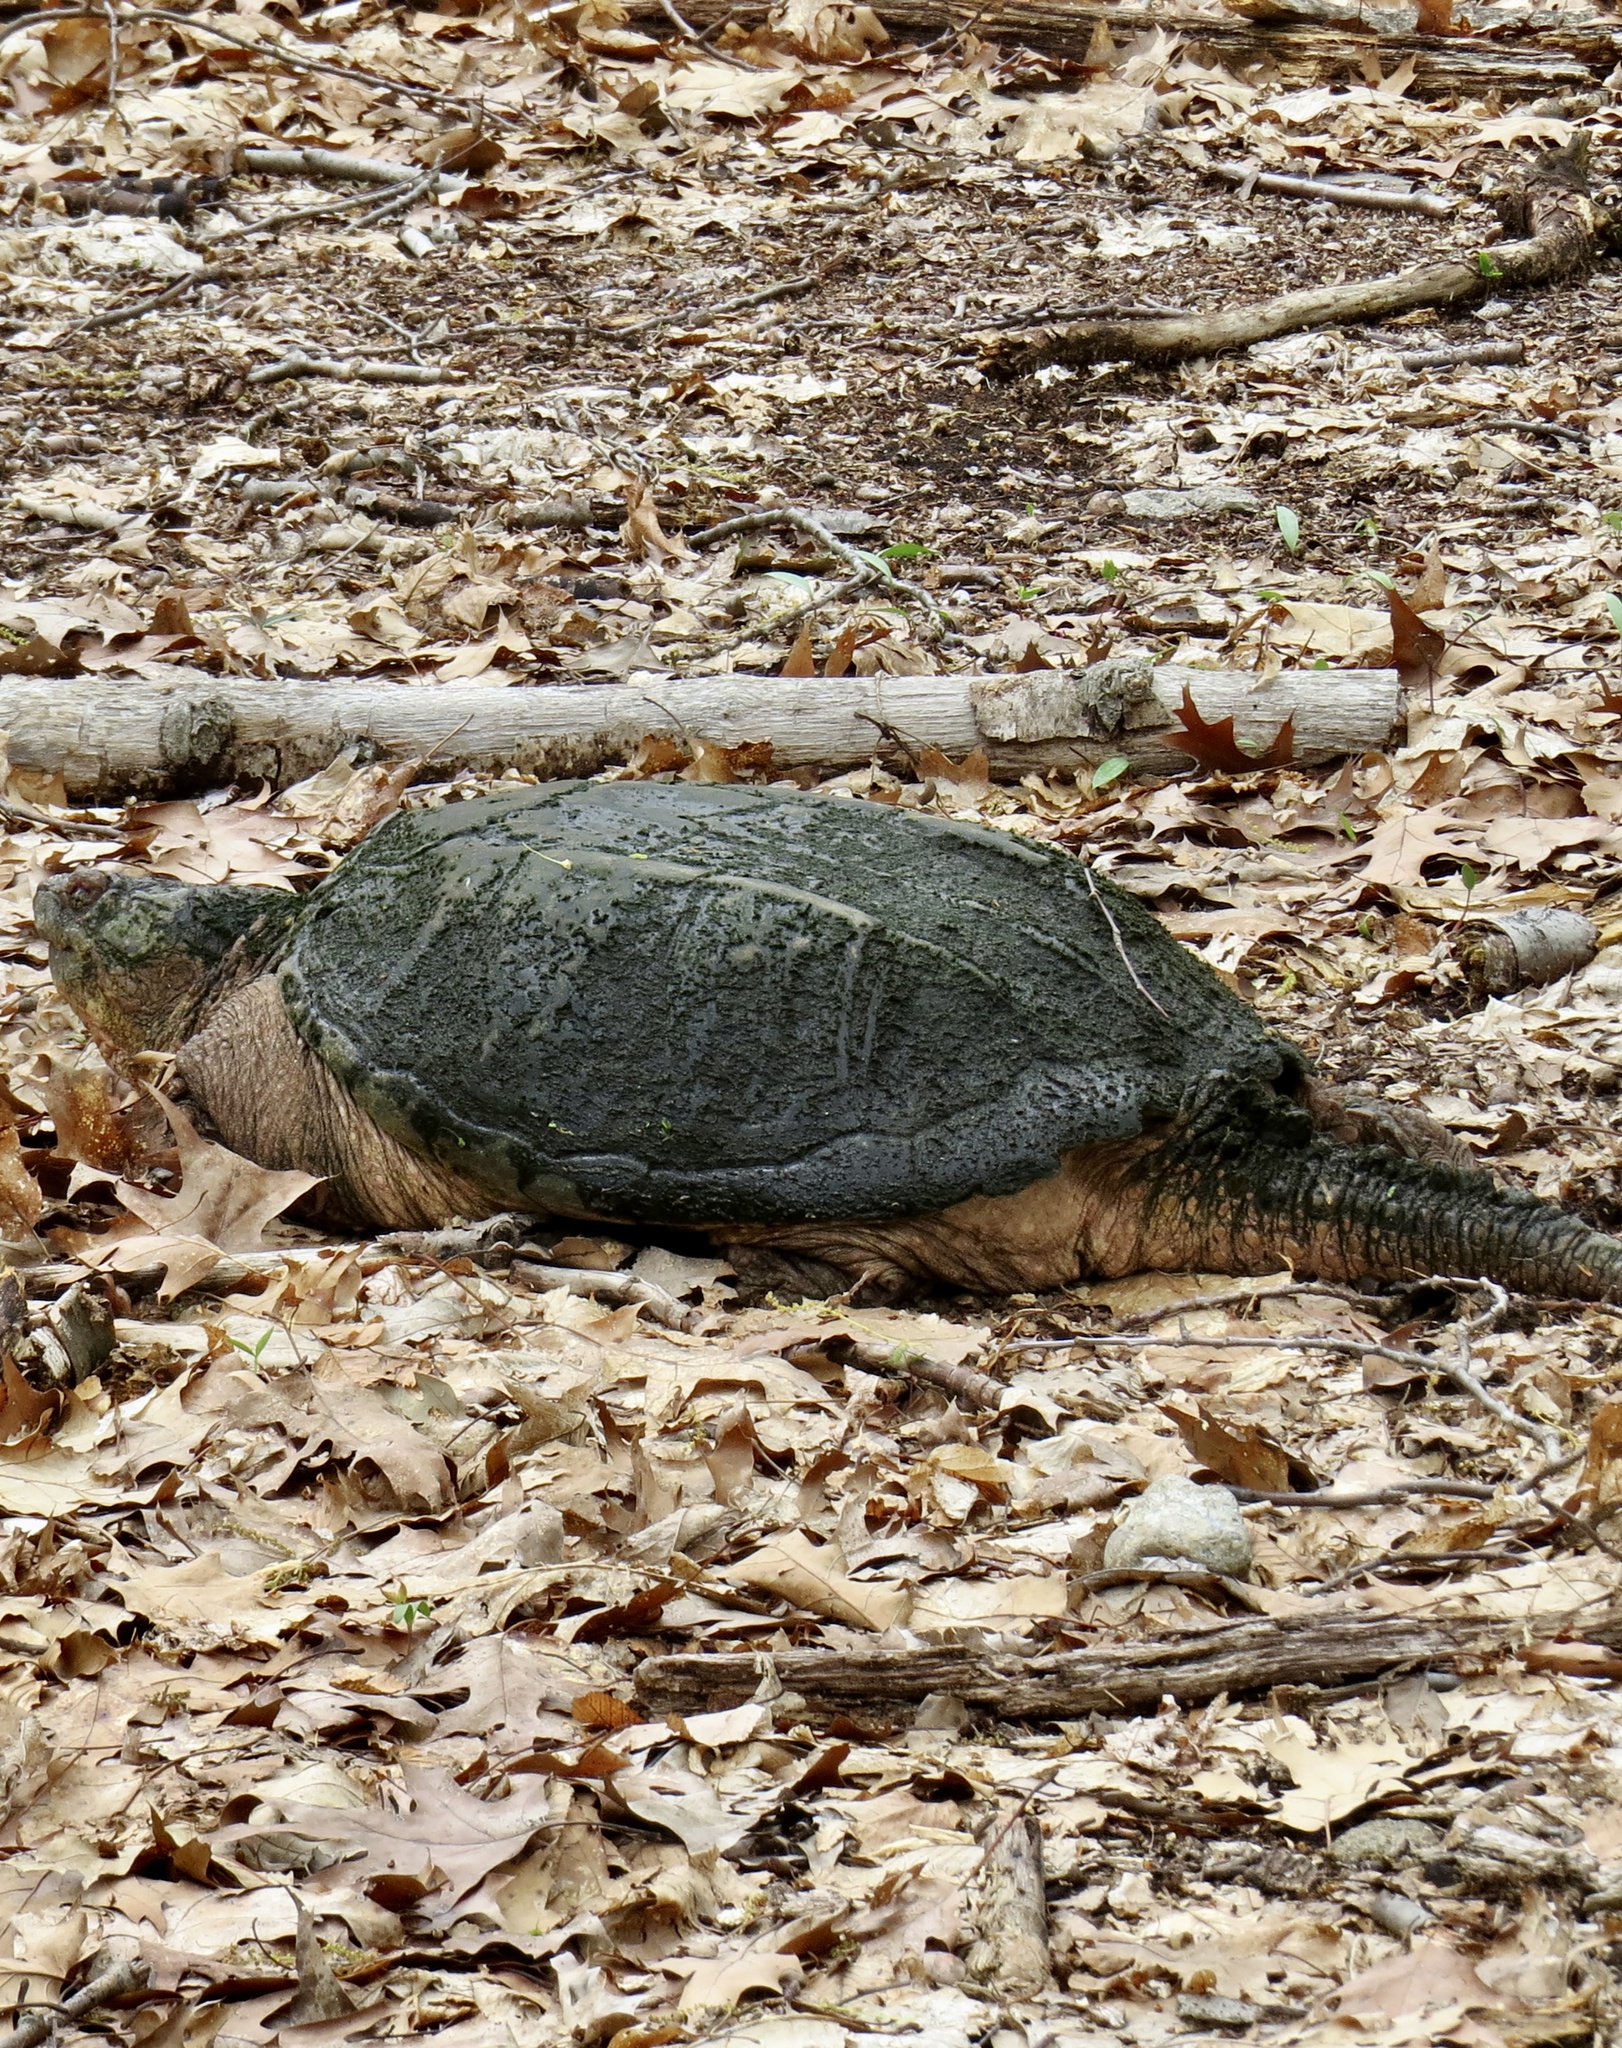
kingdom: Animalia
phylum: Chordata
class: Testudines
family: Chelydridae
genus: Chelydra
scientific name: Chelydra serpentina
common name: Common snapping turtle
